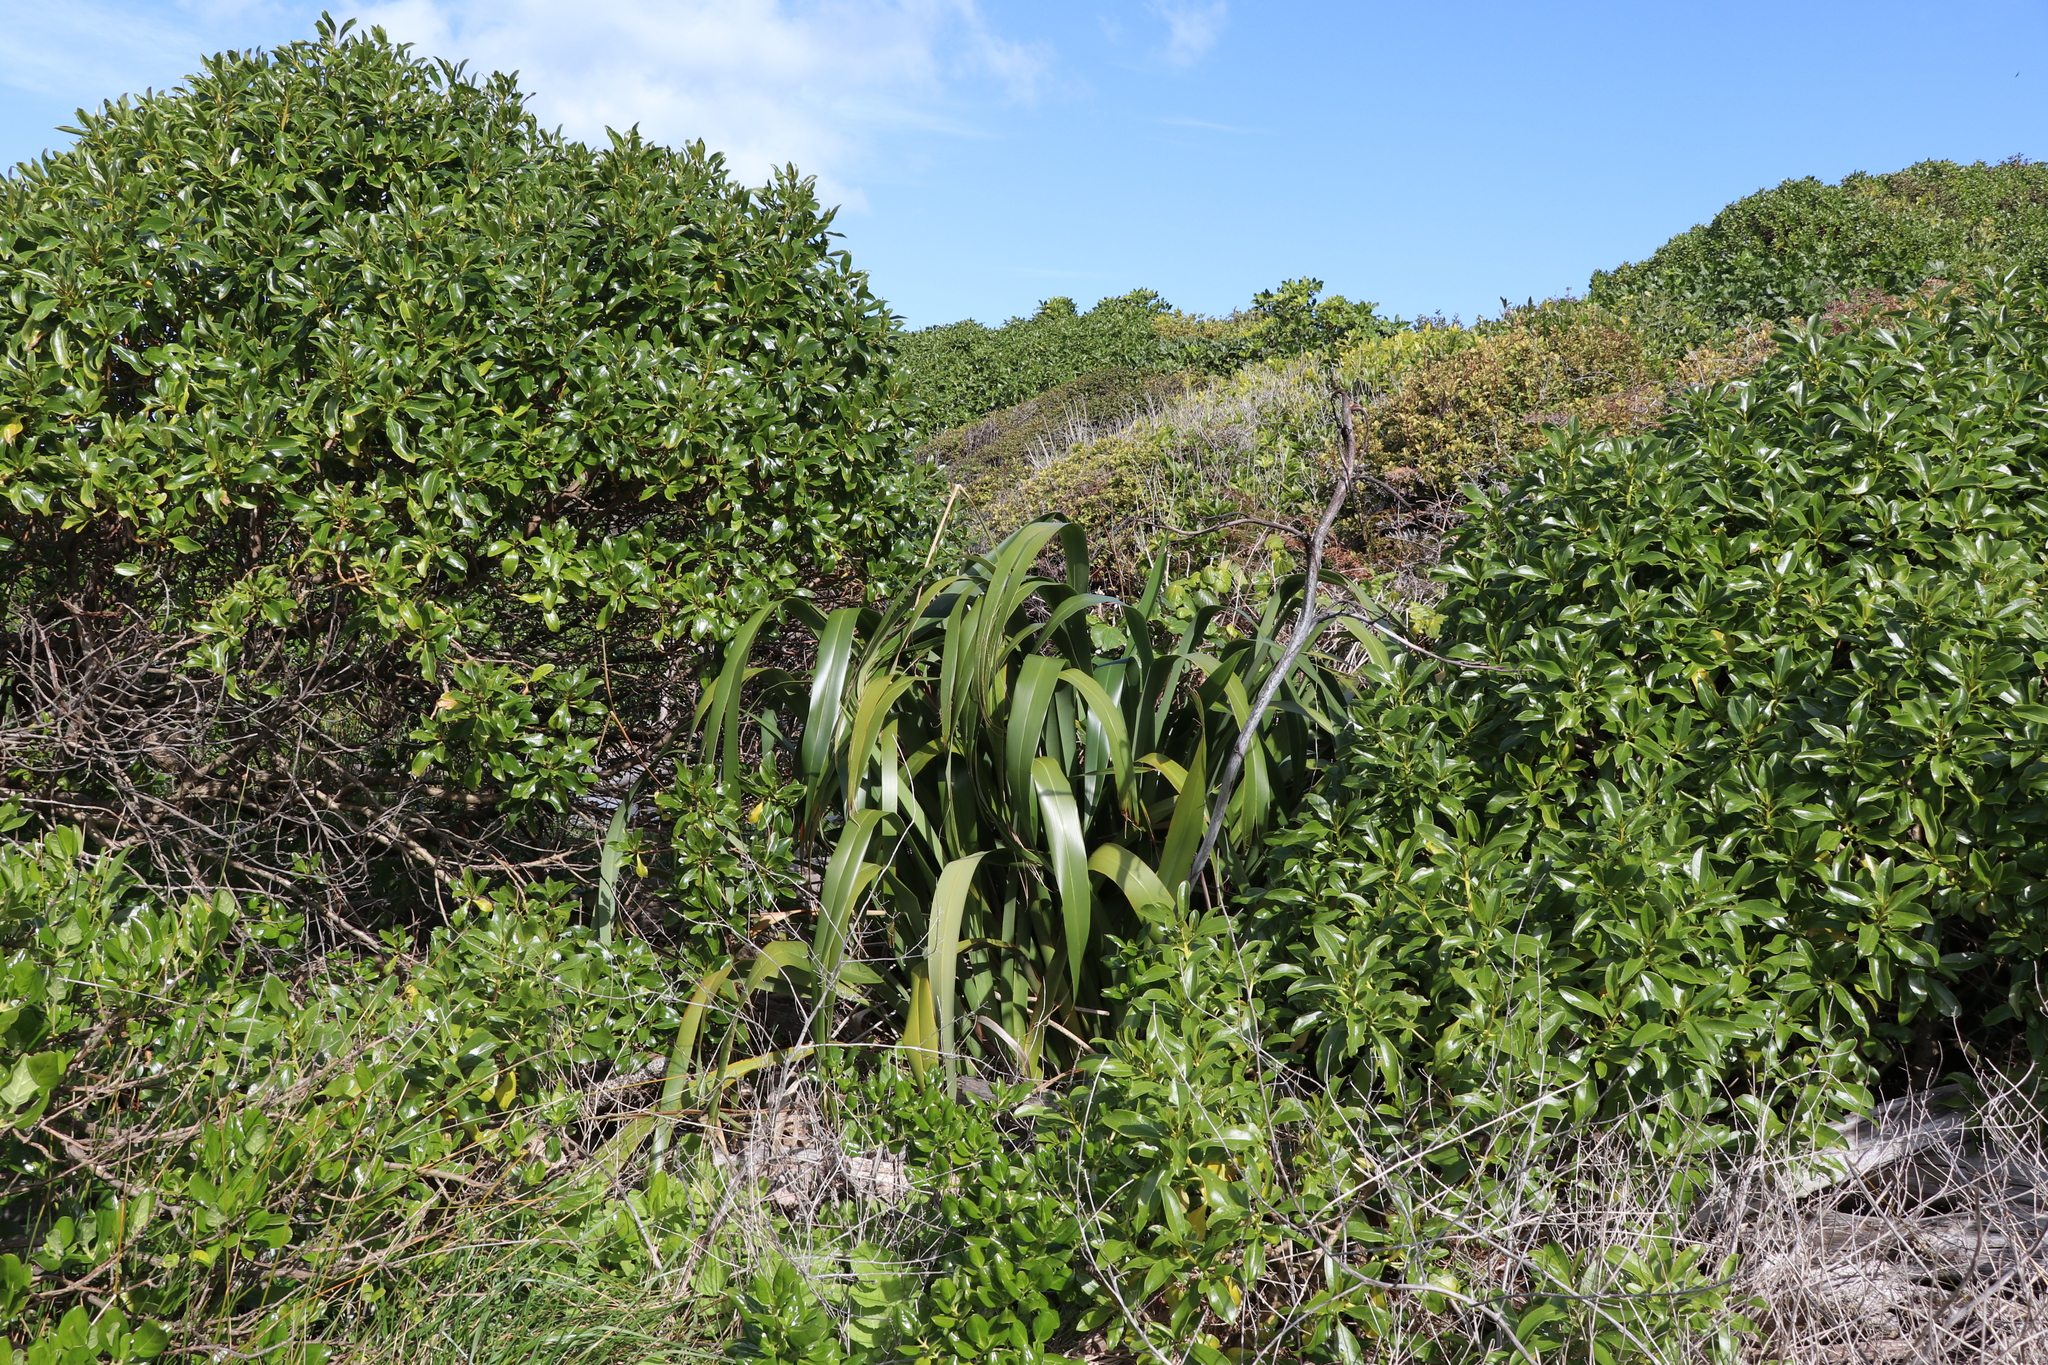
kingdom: Plantae
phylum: Tracheophyta
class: Liliopsida
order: Asparagales
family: Asphodelaceae
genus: Phormium
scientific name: Phormium colensoi
